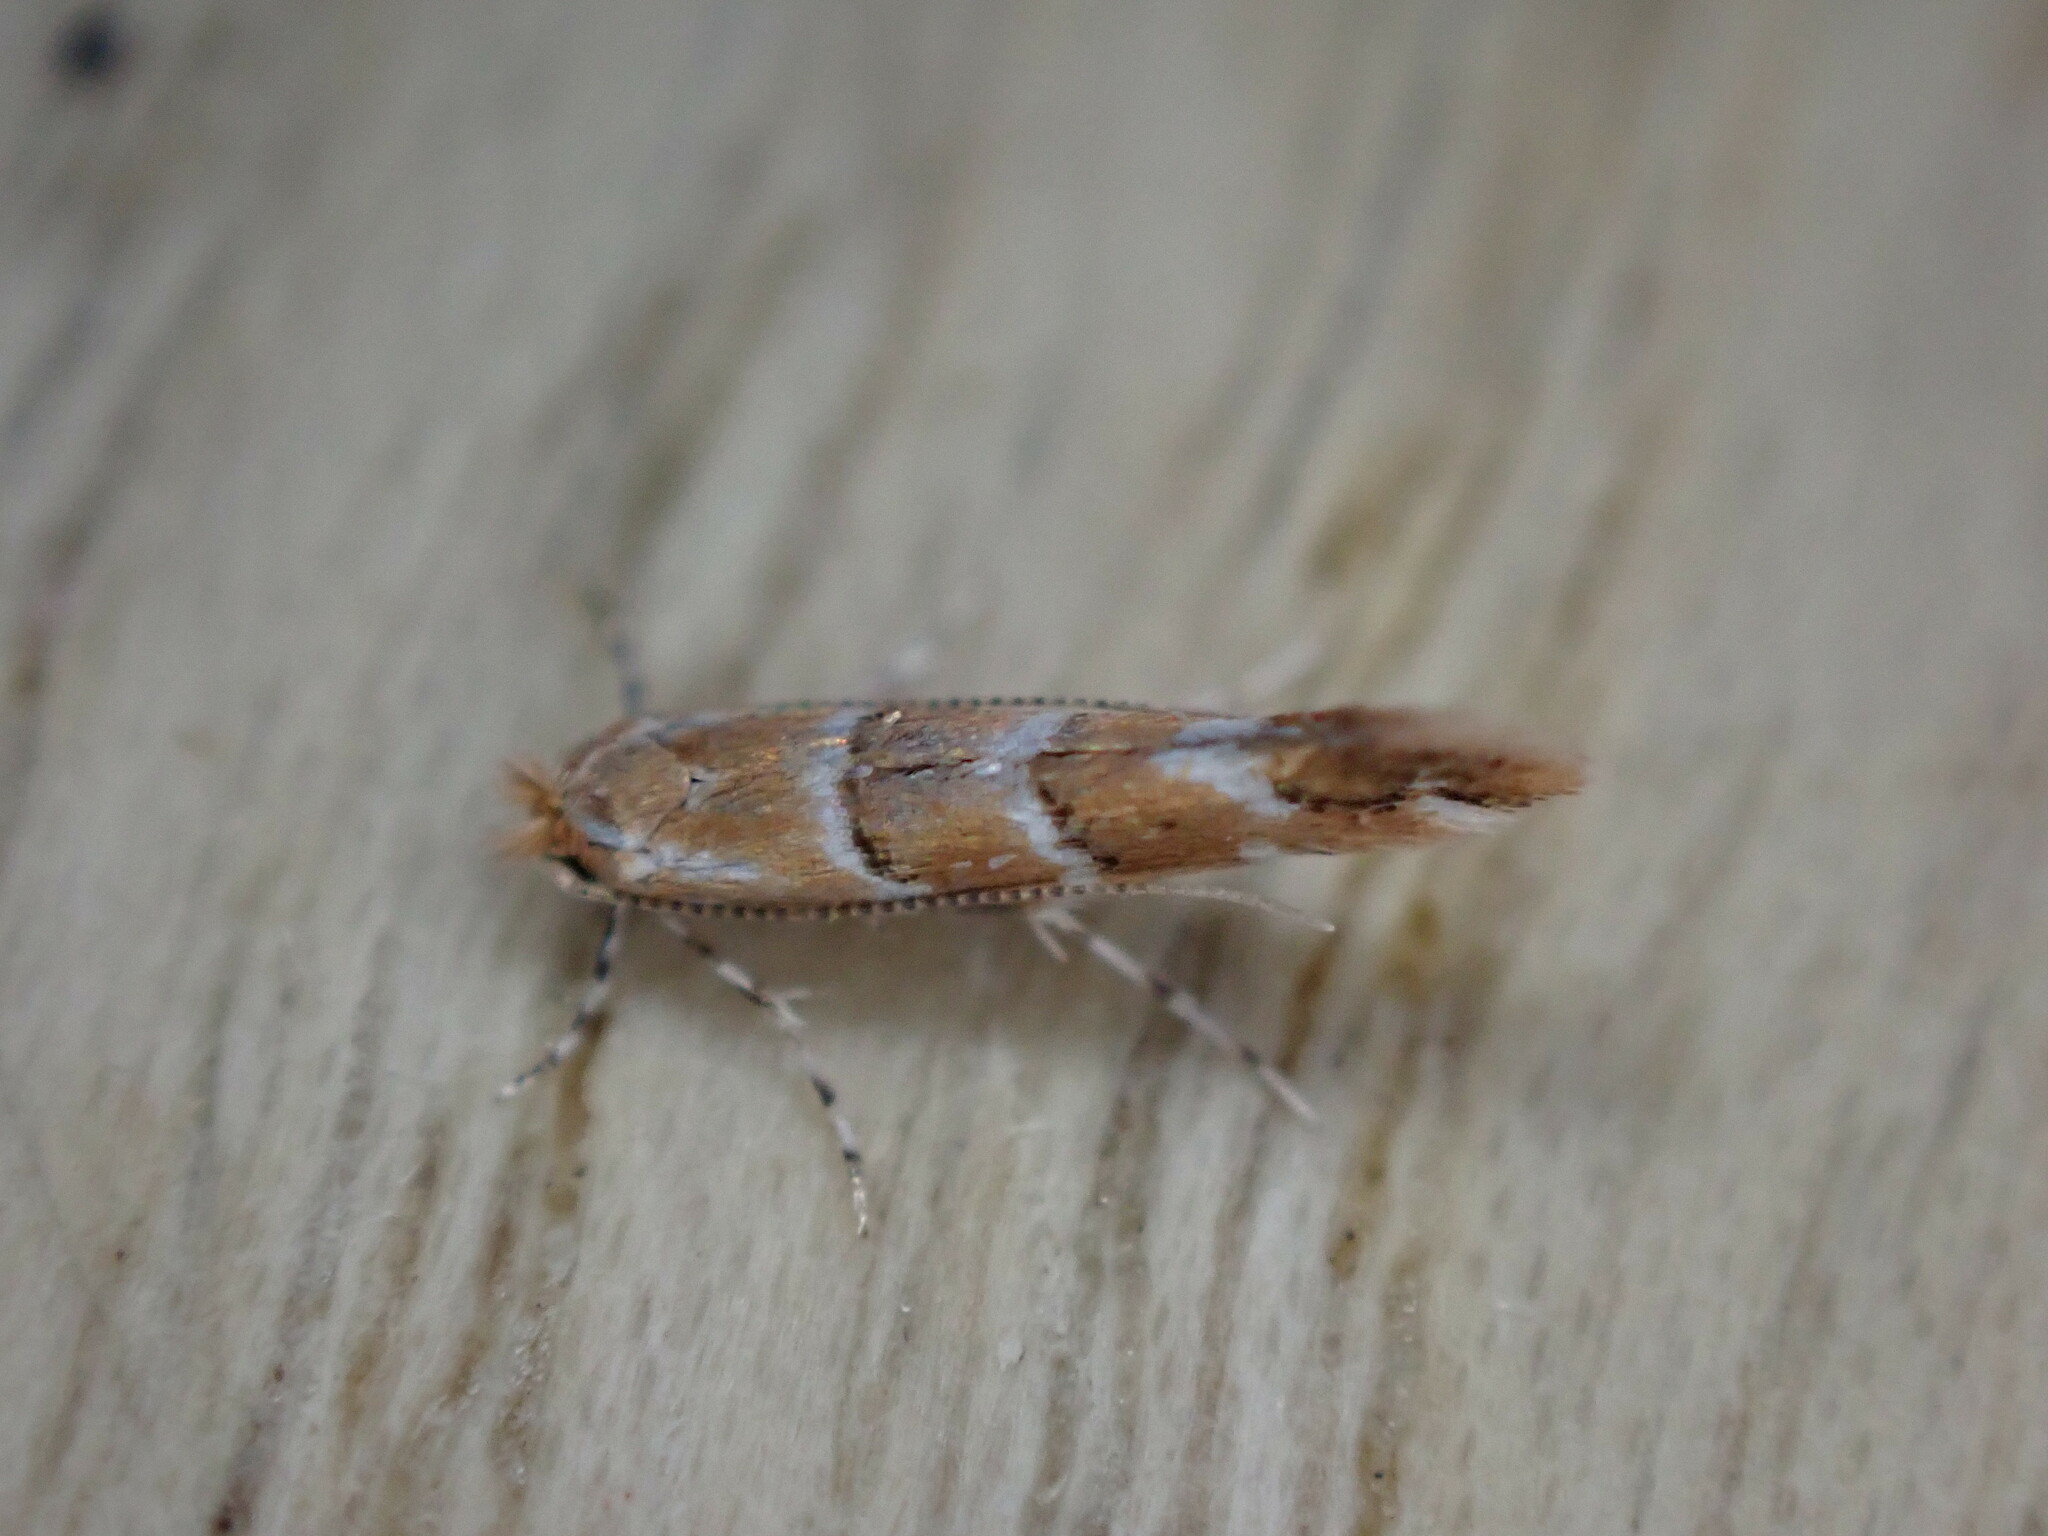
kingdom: Animalia
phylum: Arthropoda
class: Insecta
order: Lepidoptera
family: Gracillariidae
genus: Cameraria
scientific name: Cameraria ohridella
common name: Horse-chestnut leaf-miner
